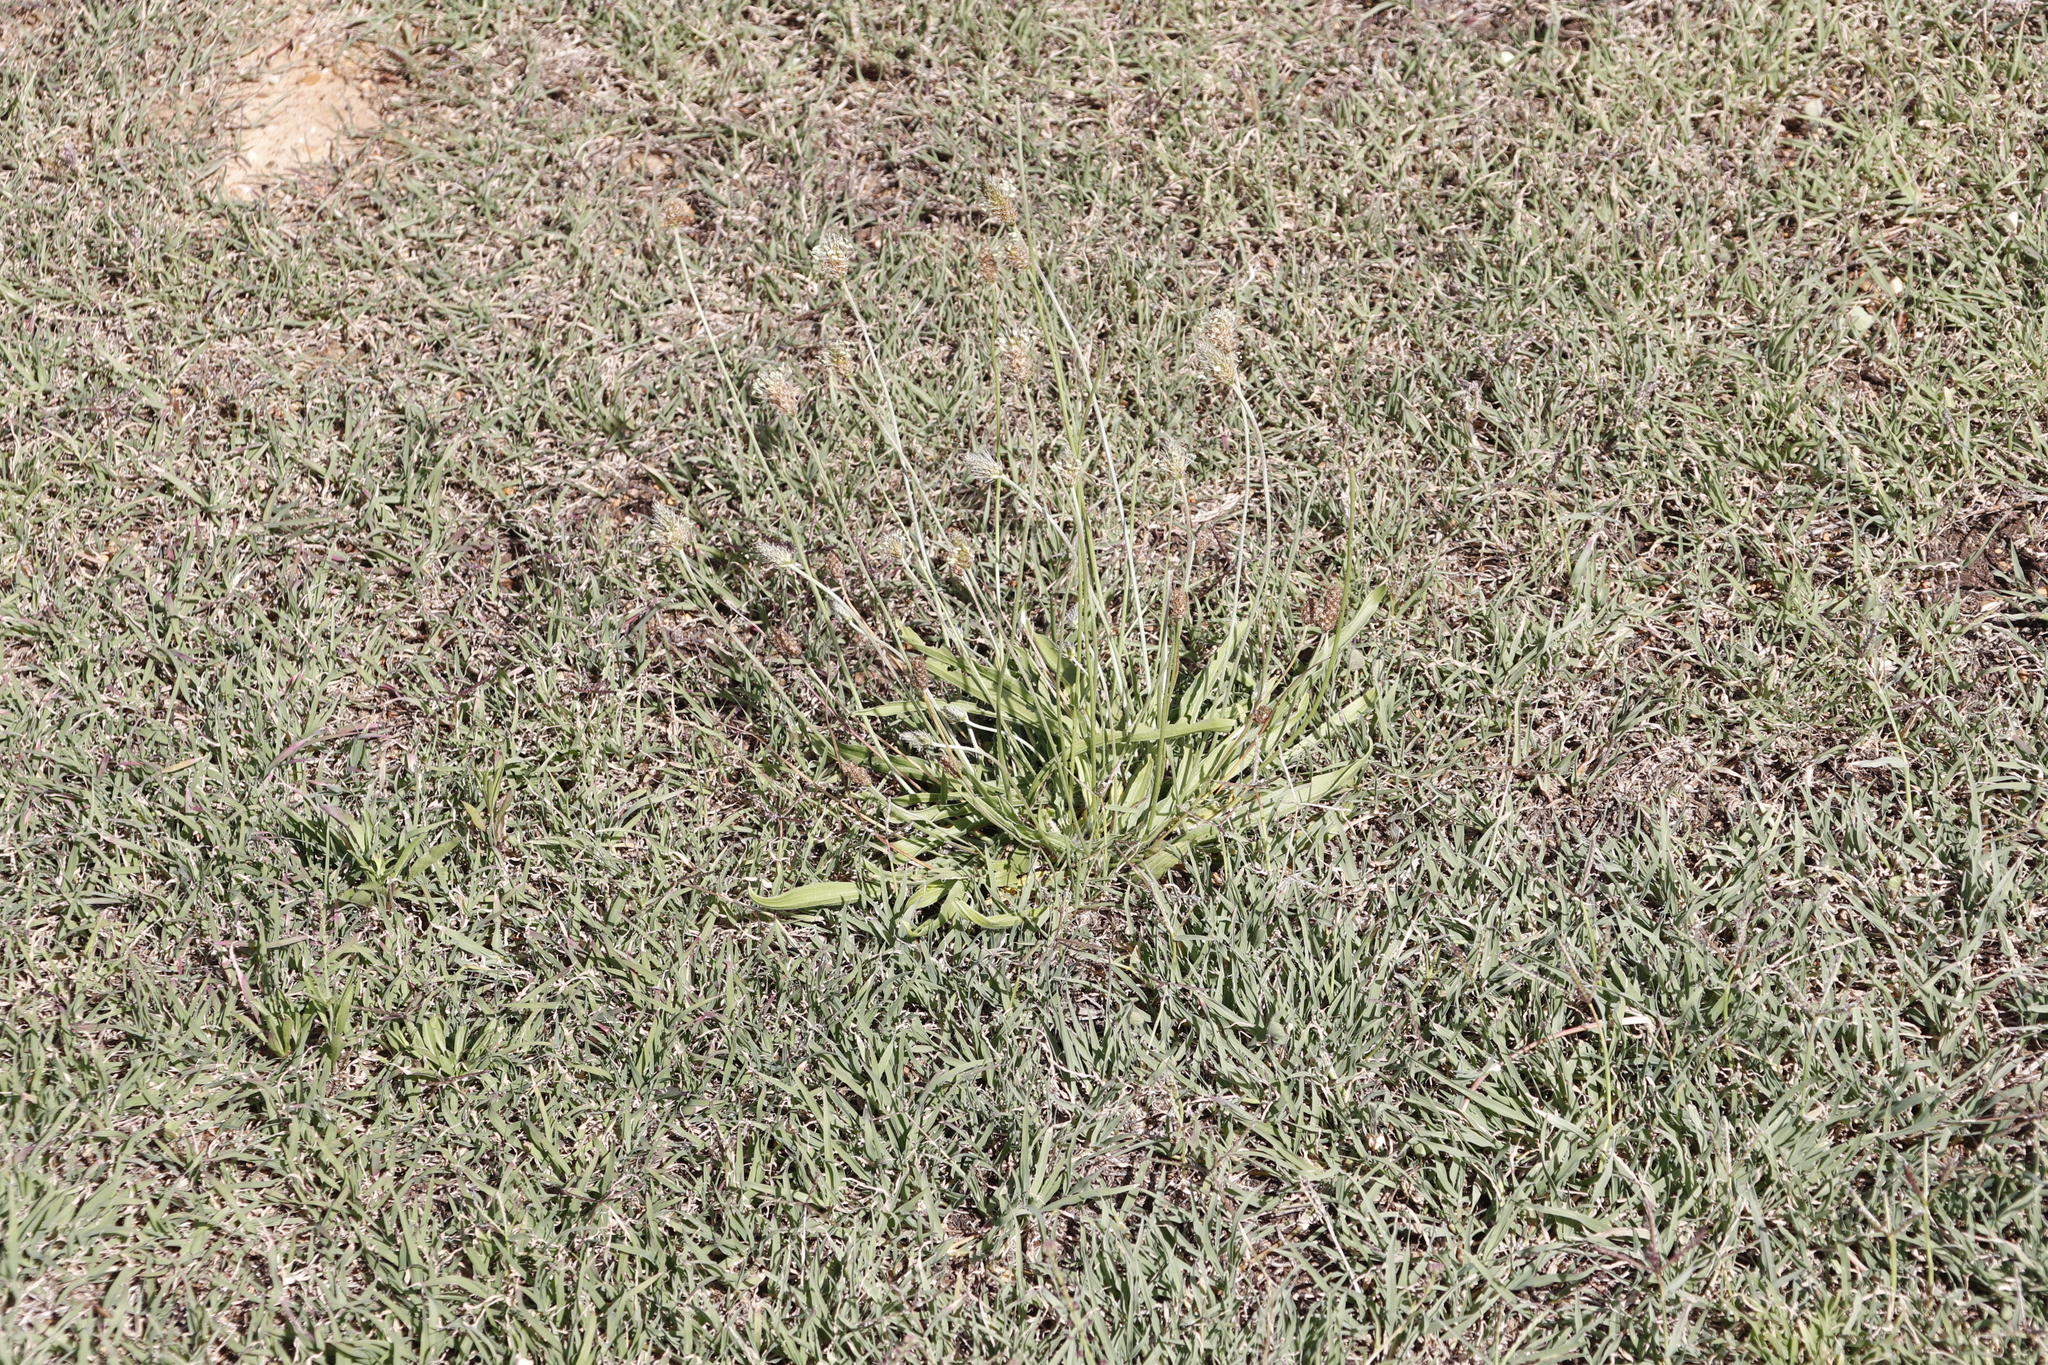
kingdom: Plantae
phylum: Tracheophyta
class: Magnoliopsida
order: Lamiales
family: Plantaginaceae
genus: Plantago
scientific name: Plantago lanceolata
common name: Ribwort plantain
